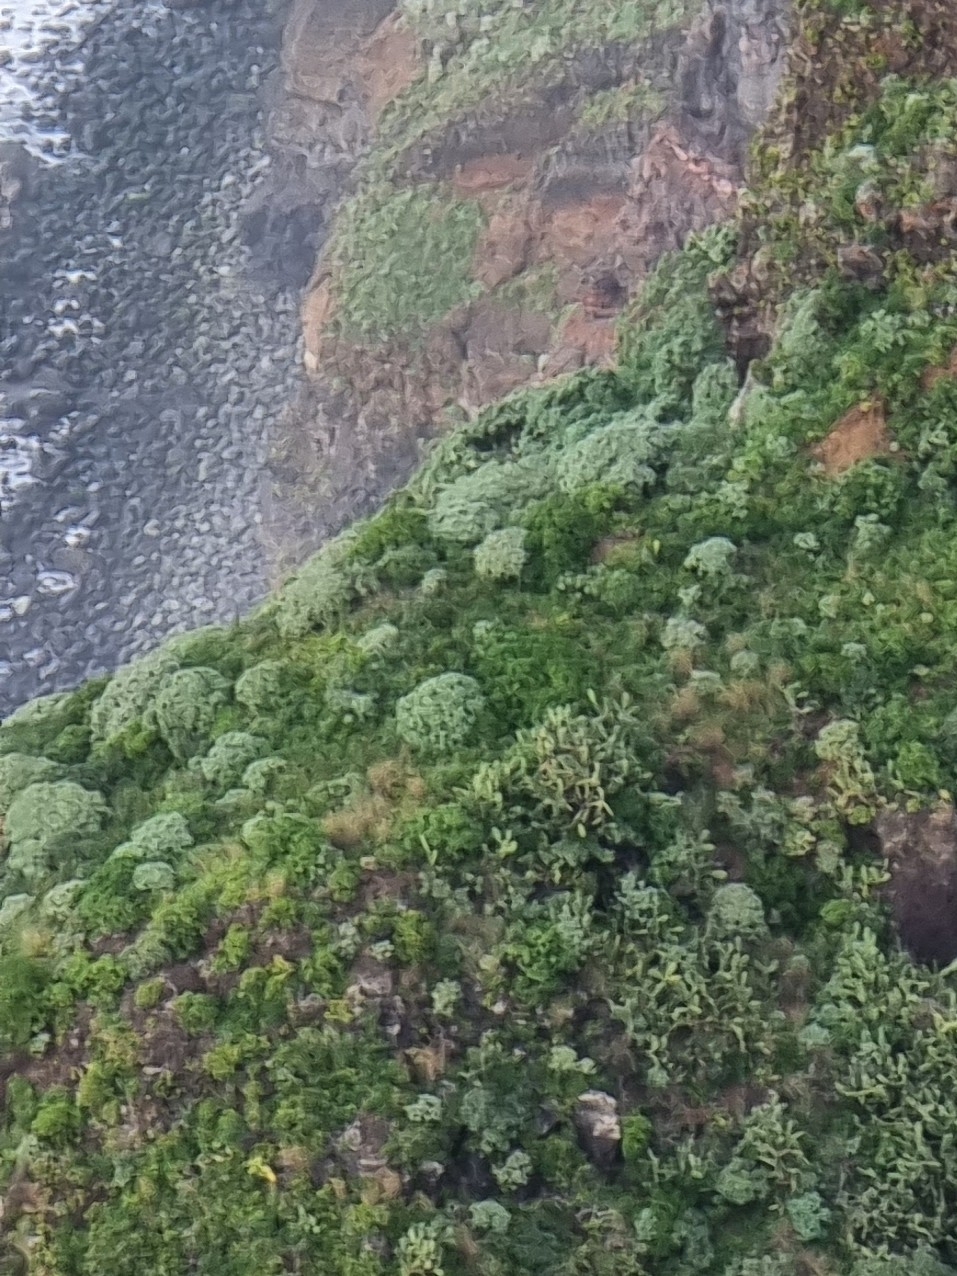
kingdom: Plantae
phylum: Tracheophyta
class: Magnoliopsida
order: Malpighiales
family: Euphorbiaceae
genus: Euphorbia
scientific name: Euphorbia piscatoria
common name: Fish-stunning spurge
